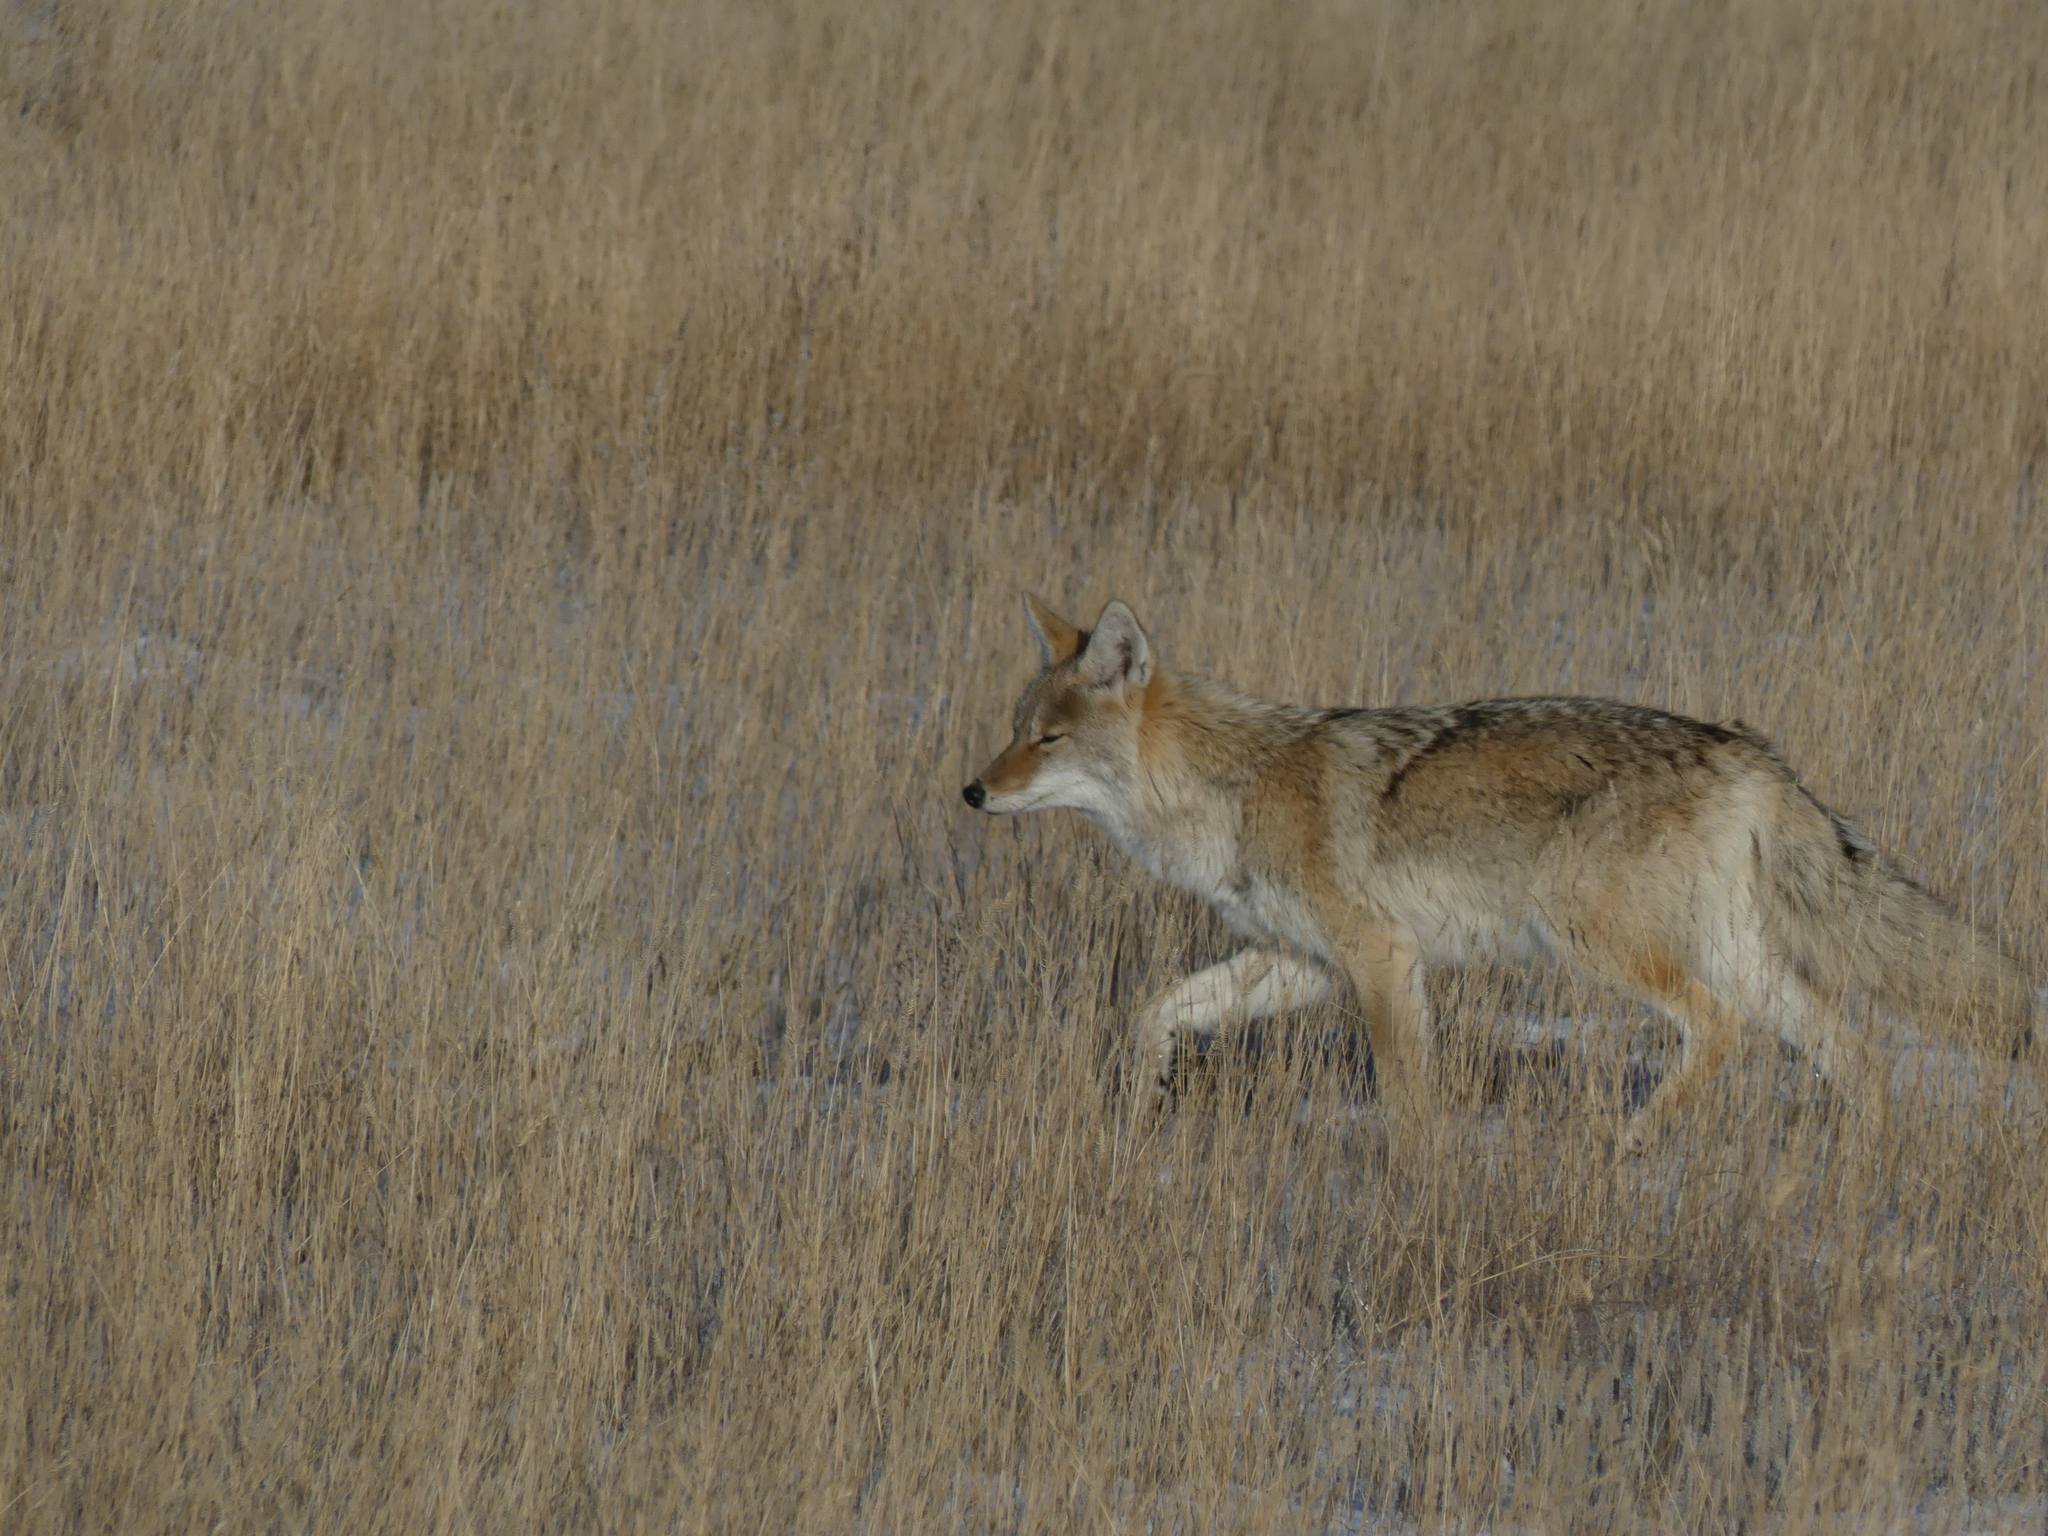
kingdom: Animalia
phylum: Chordata
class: Mammalia
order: Carnivora
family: Canidae
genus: Canis
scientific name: Canis latrans
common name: Coyote
